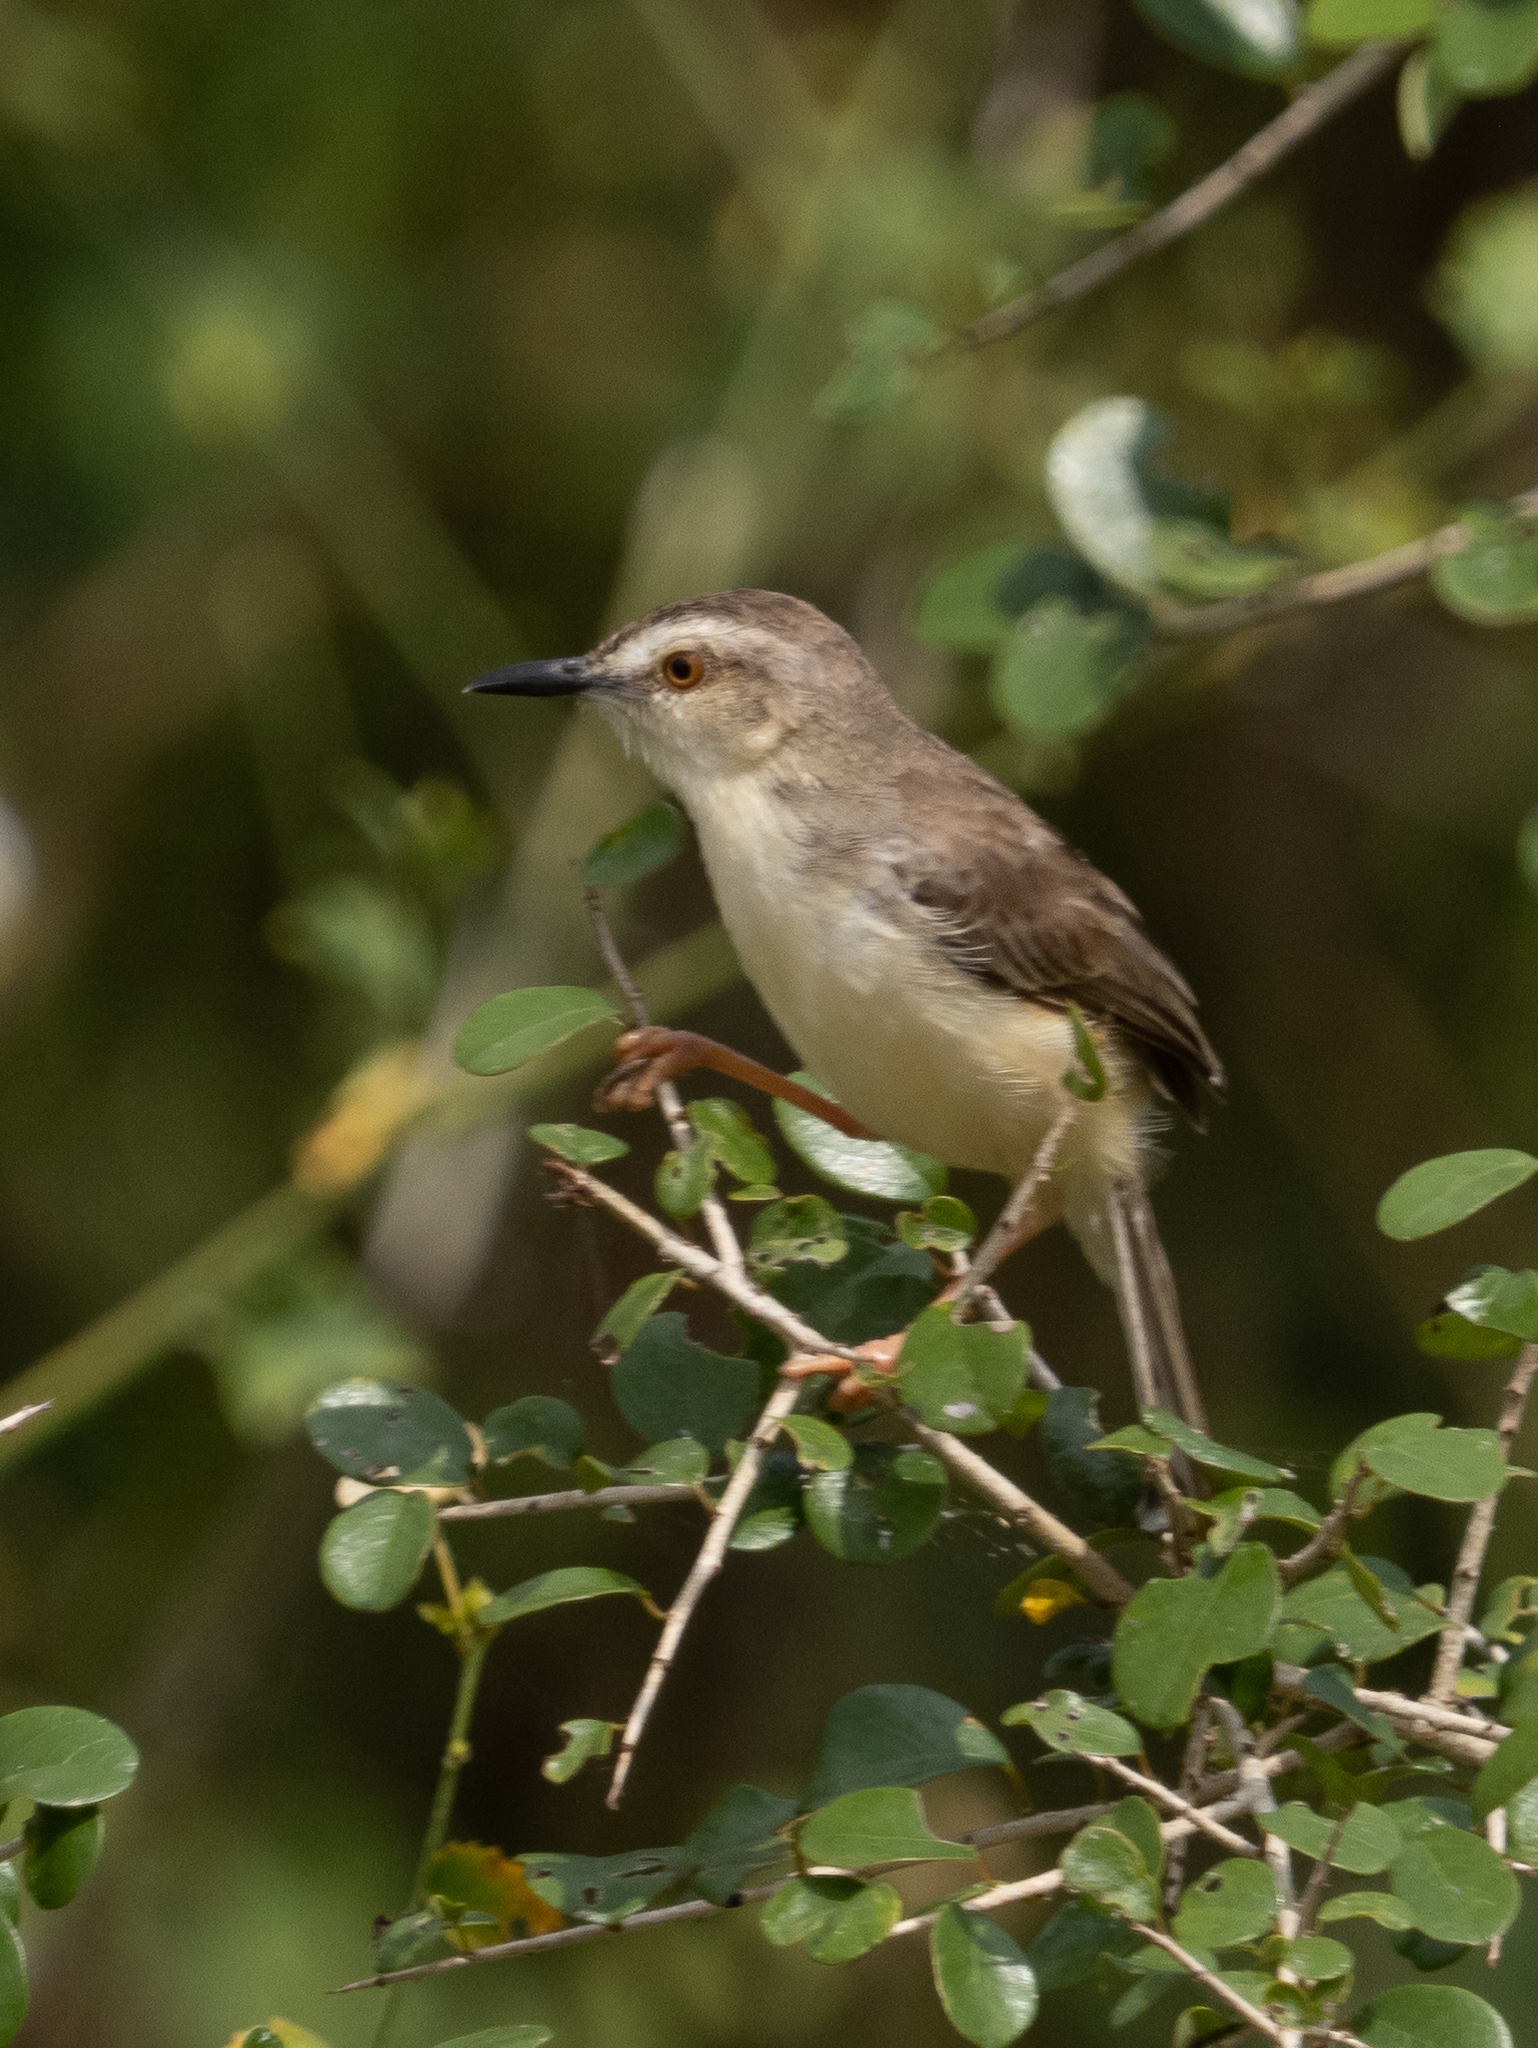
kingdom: Animalia
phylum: Chordata
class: Aves
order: Passeriformes
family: Cisticolidae
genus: Prinia
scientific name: Prinia inornata
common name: Plain prinia
